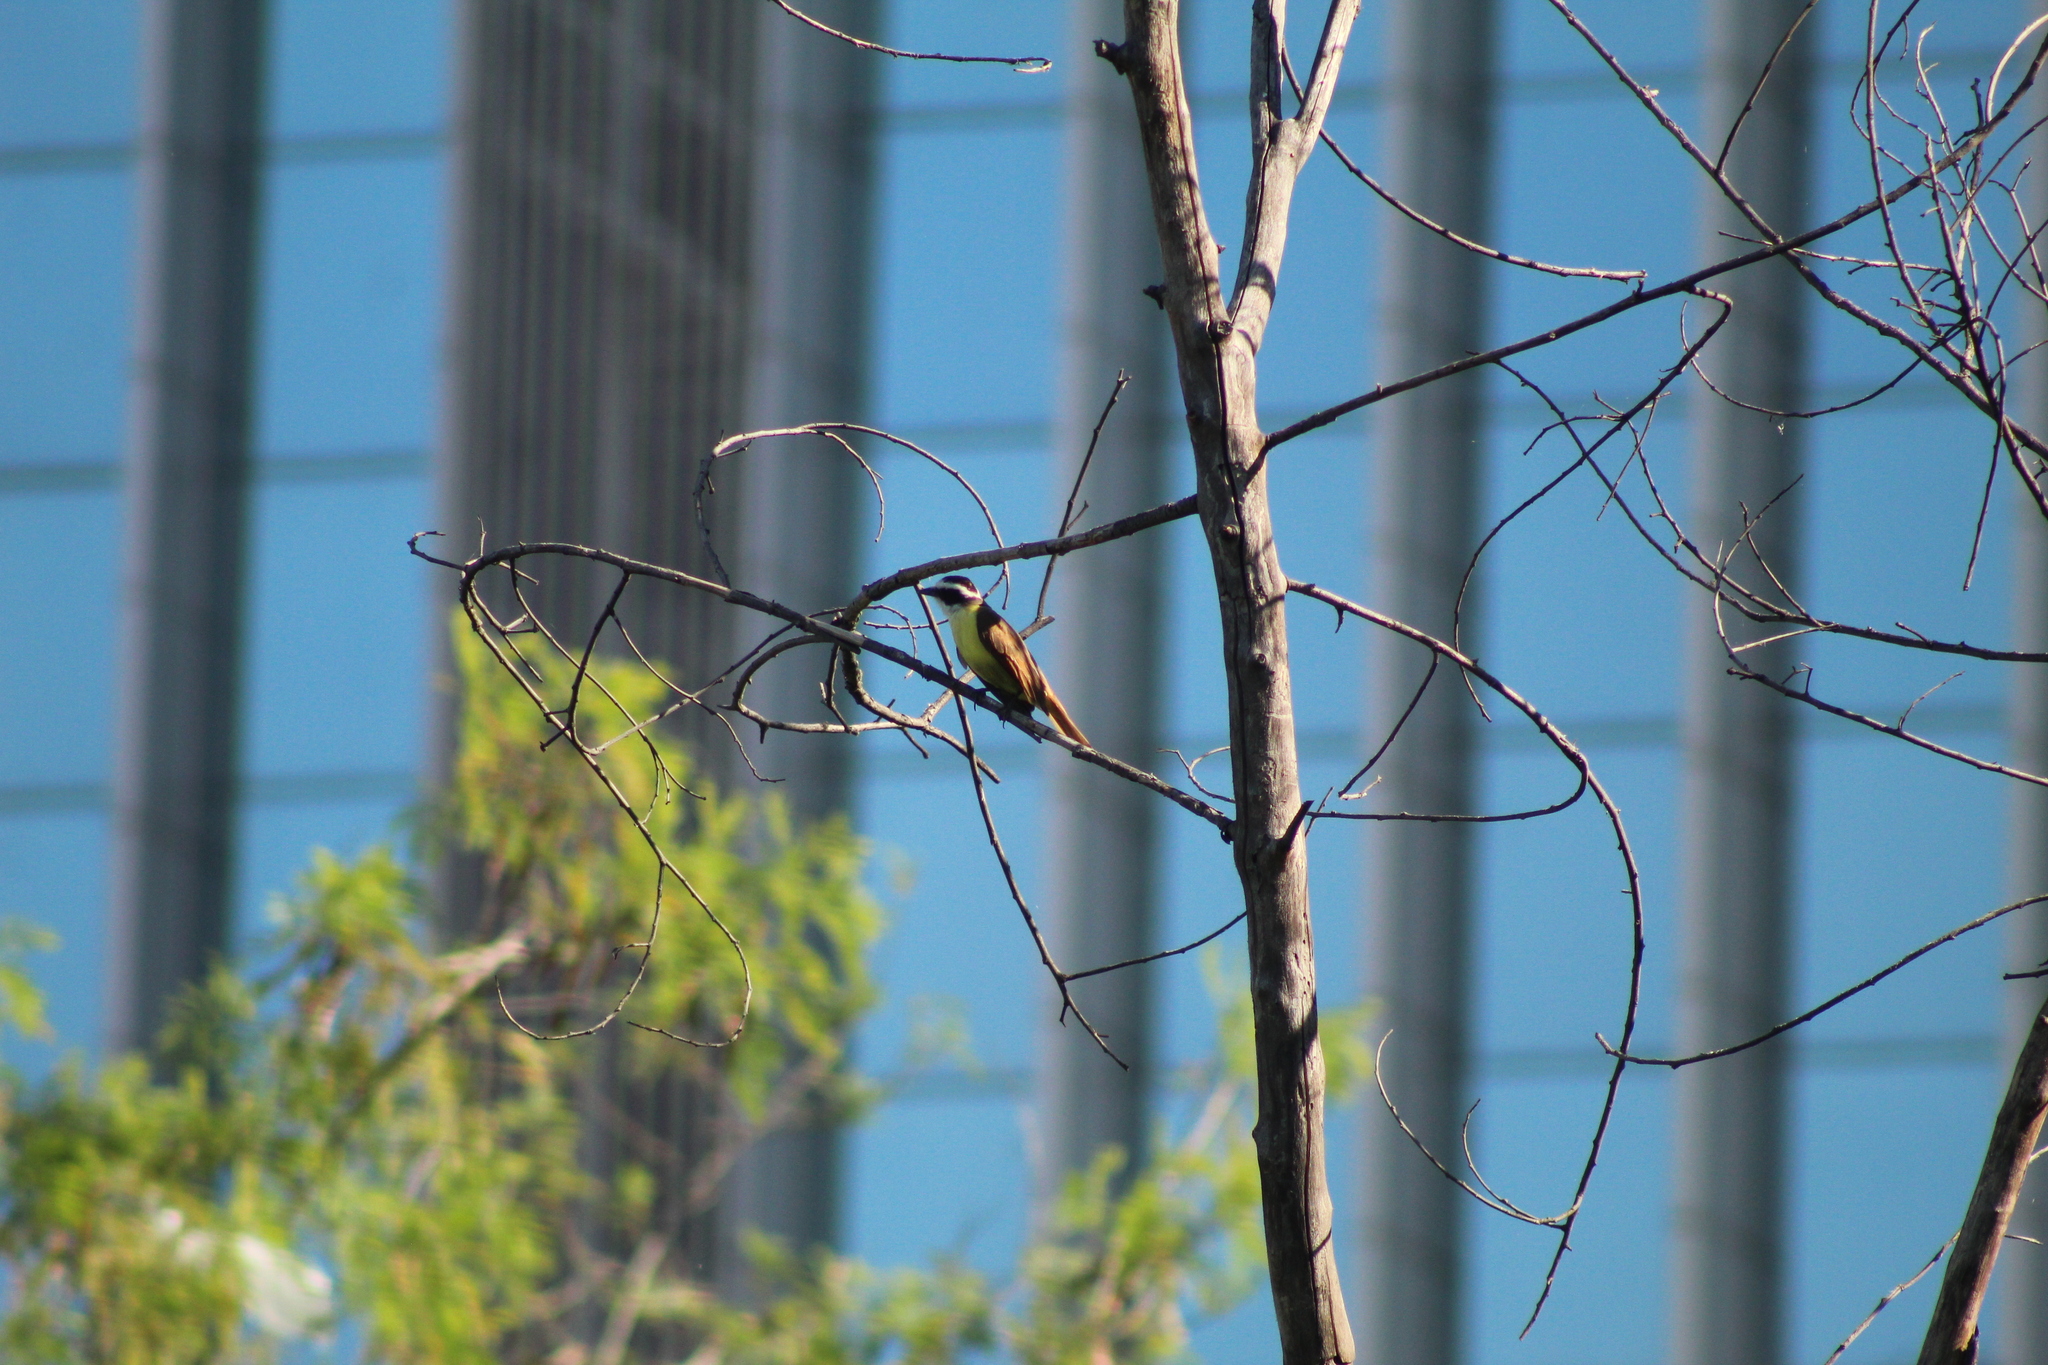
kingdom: Animalia
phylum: Chordata
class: Aves
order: Passeriformes
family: Tyrannidae
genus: Pitangus
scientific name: Pitangus sulphuratus
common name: Great kiskadee
